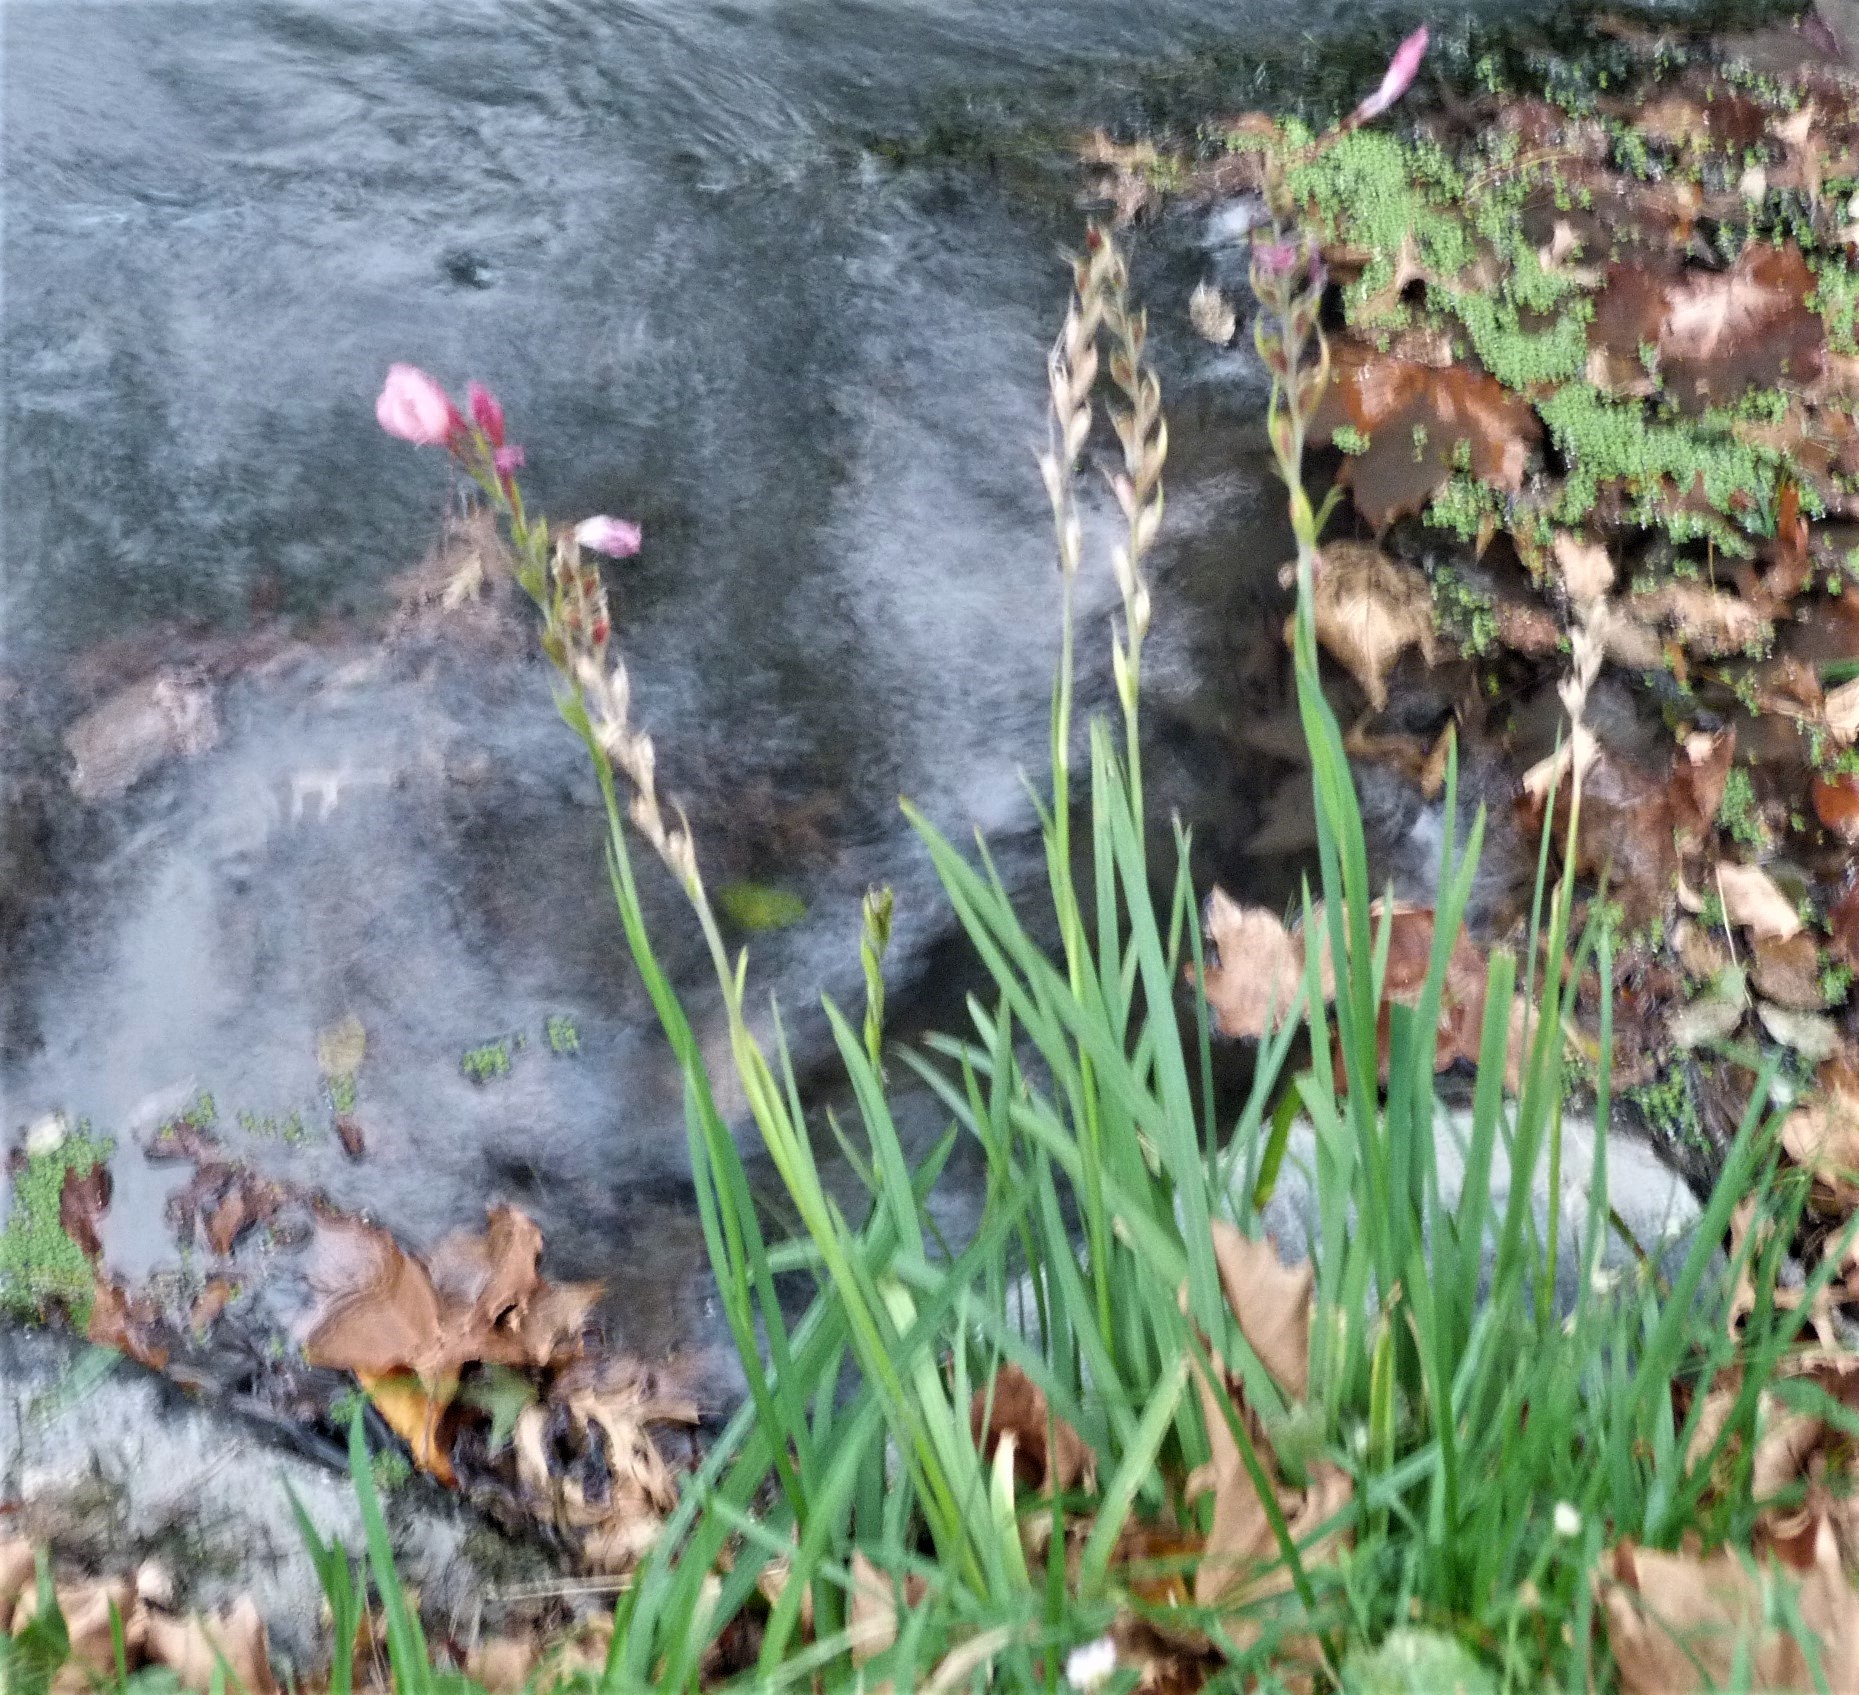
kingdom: Plantae
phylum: Tracheophyta
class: Liliopsida
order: Asparagales
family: Iridaceae
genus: Hesperantha
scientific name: Hesperantha coccinea
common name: River-lily
